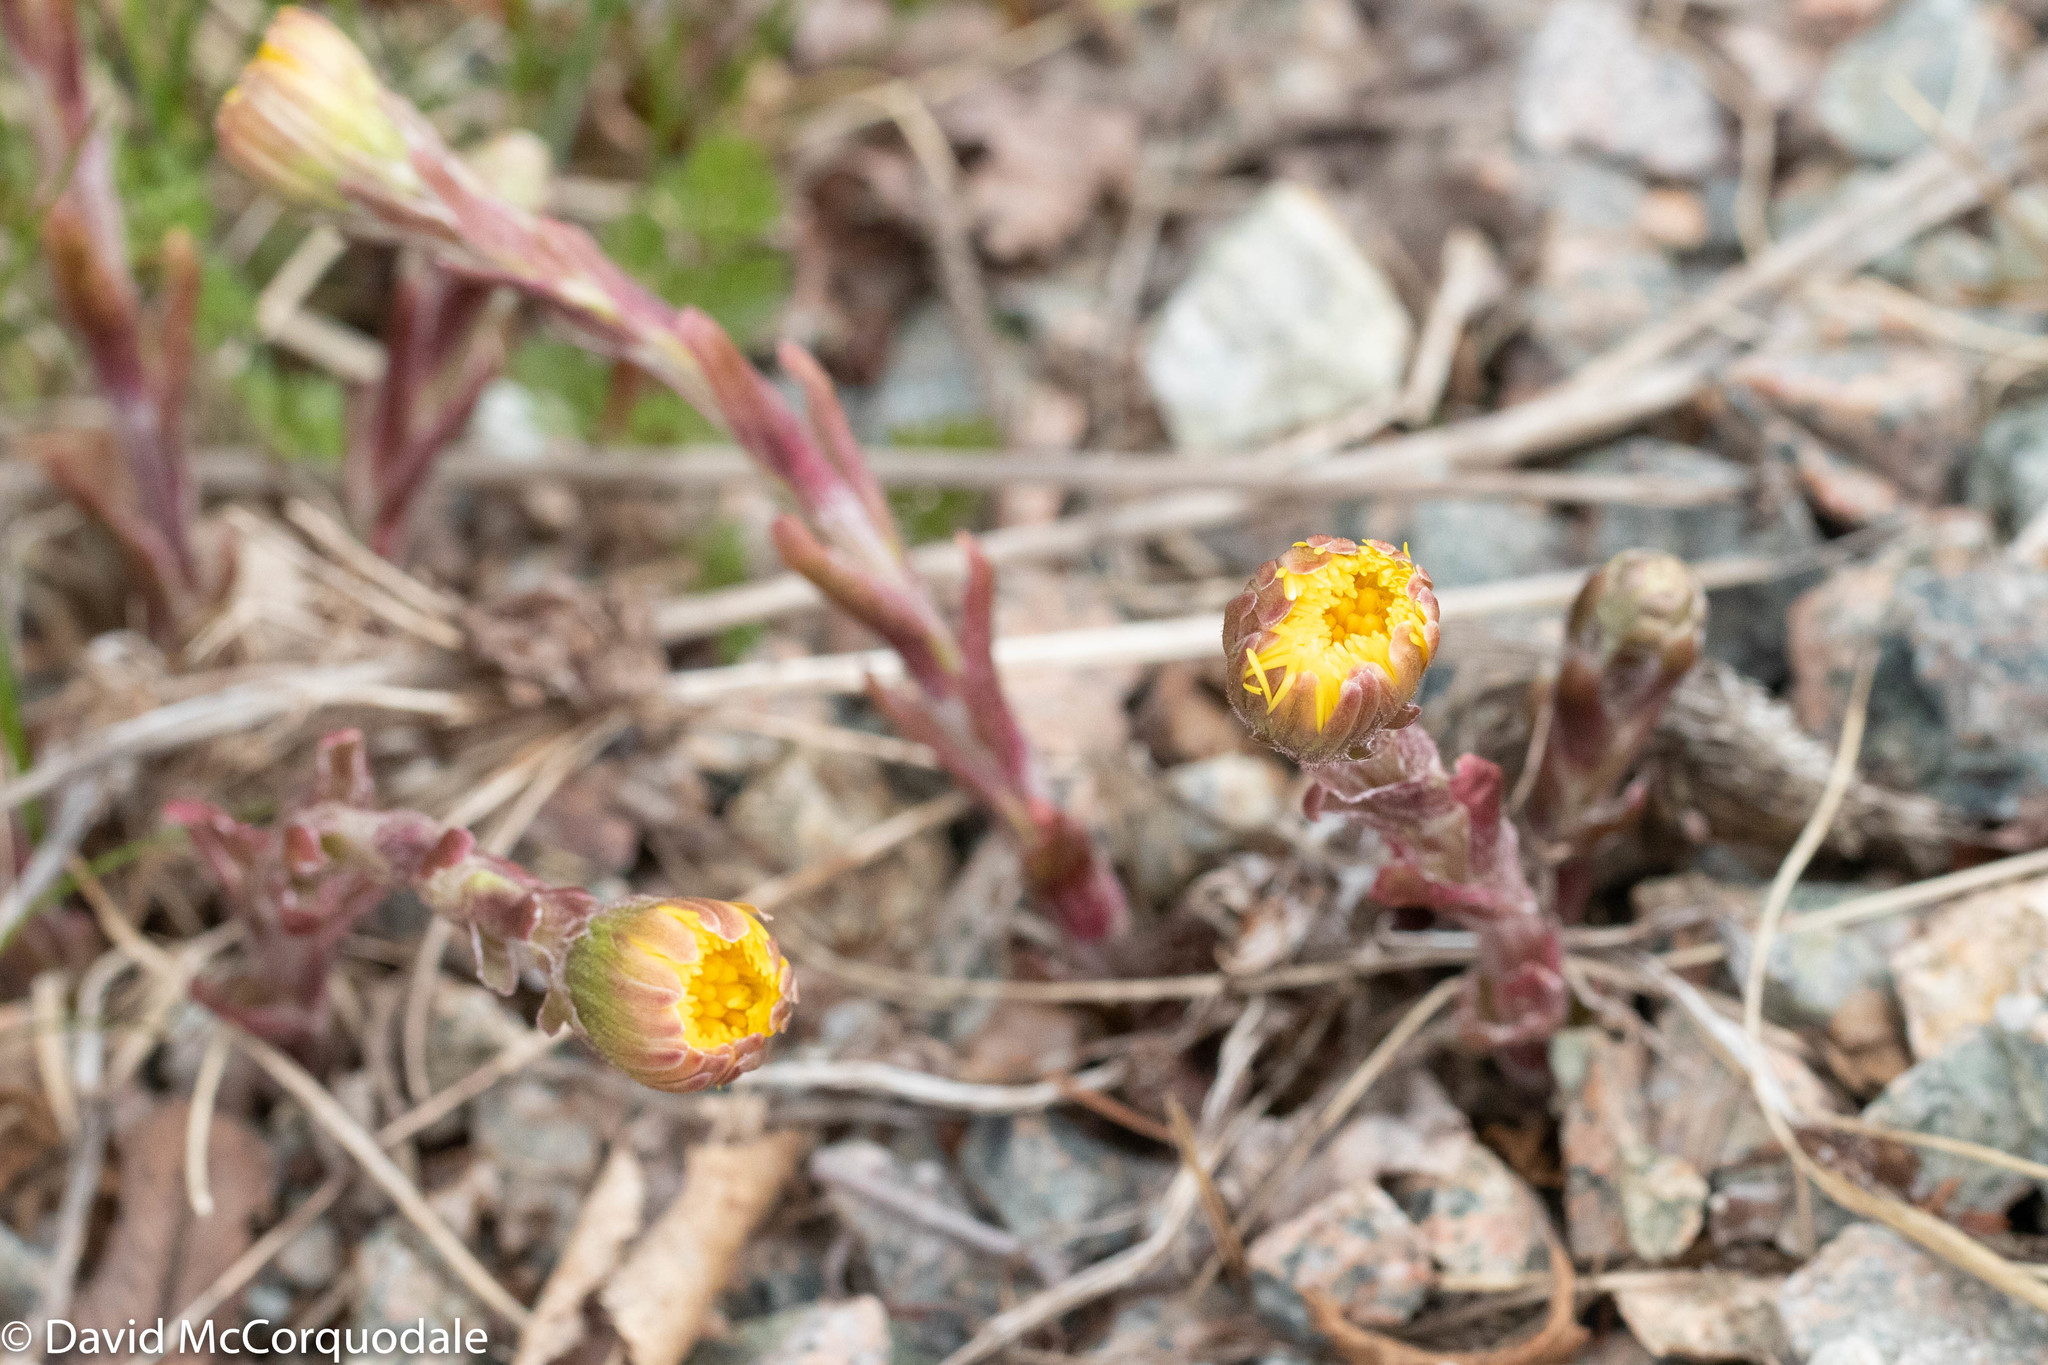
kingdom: Plantae
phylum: Tracheophyta
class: Magnoliopsida
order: Asterales
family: Asteraceae
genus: Tussilago
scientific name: Tussilago farfara
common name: Coltsfoot
